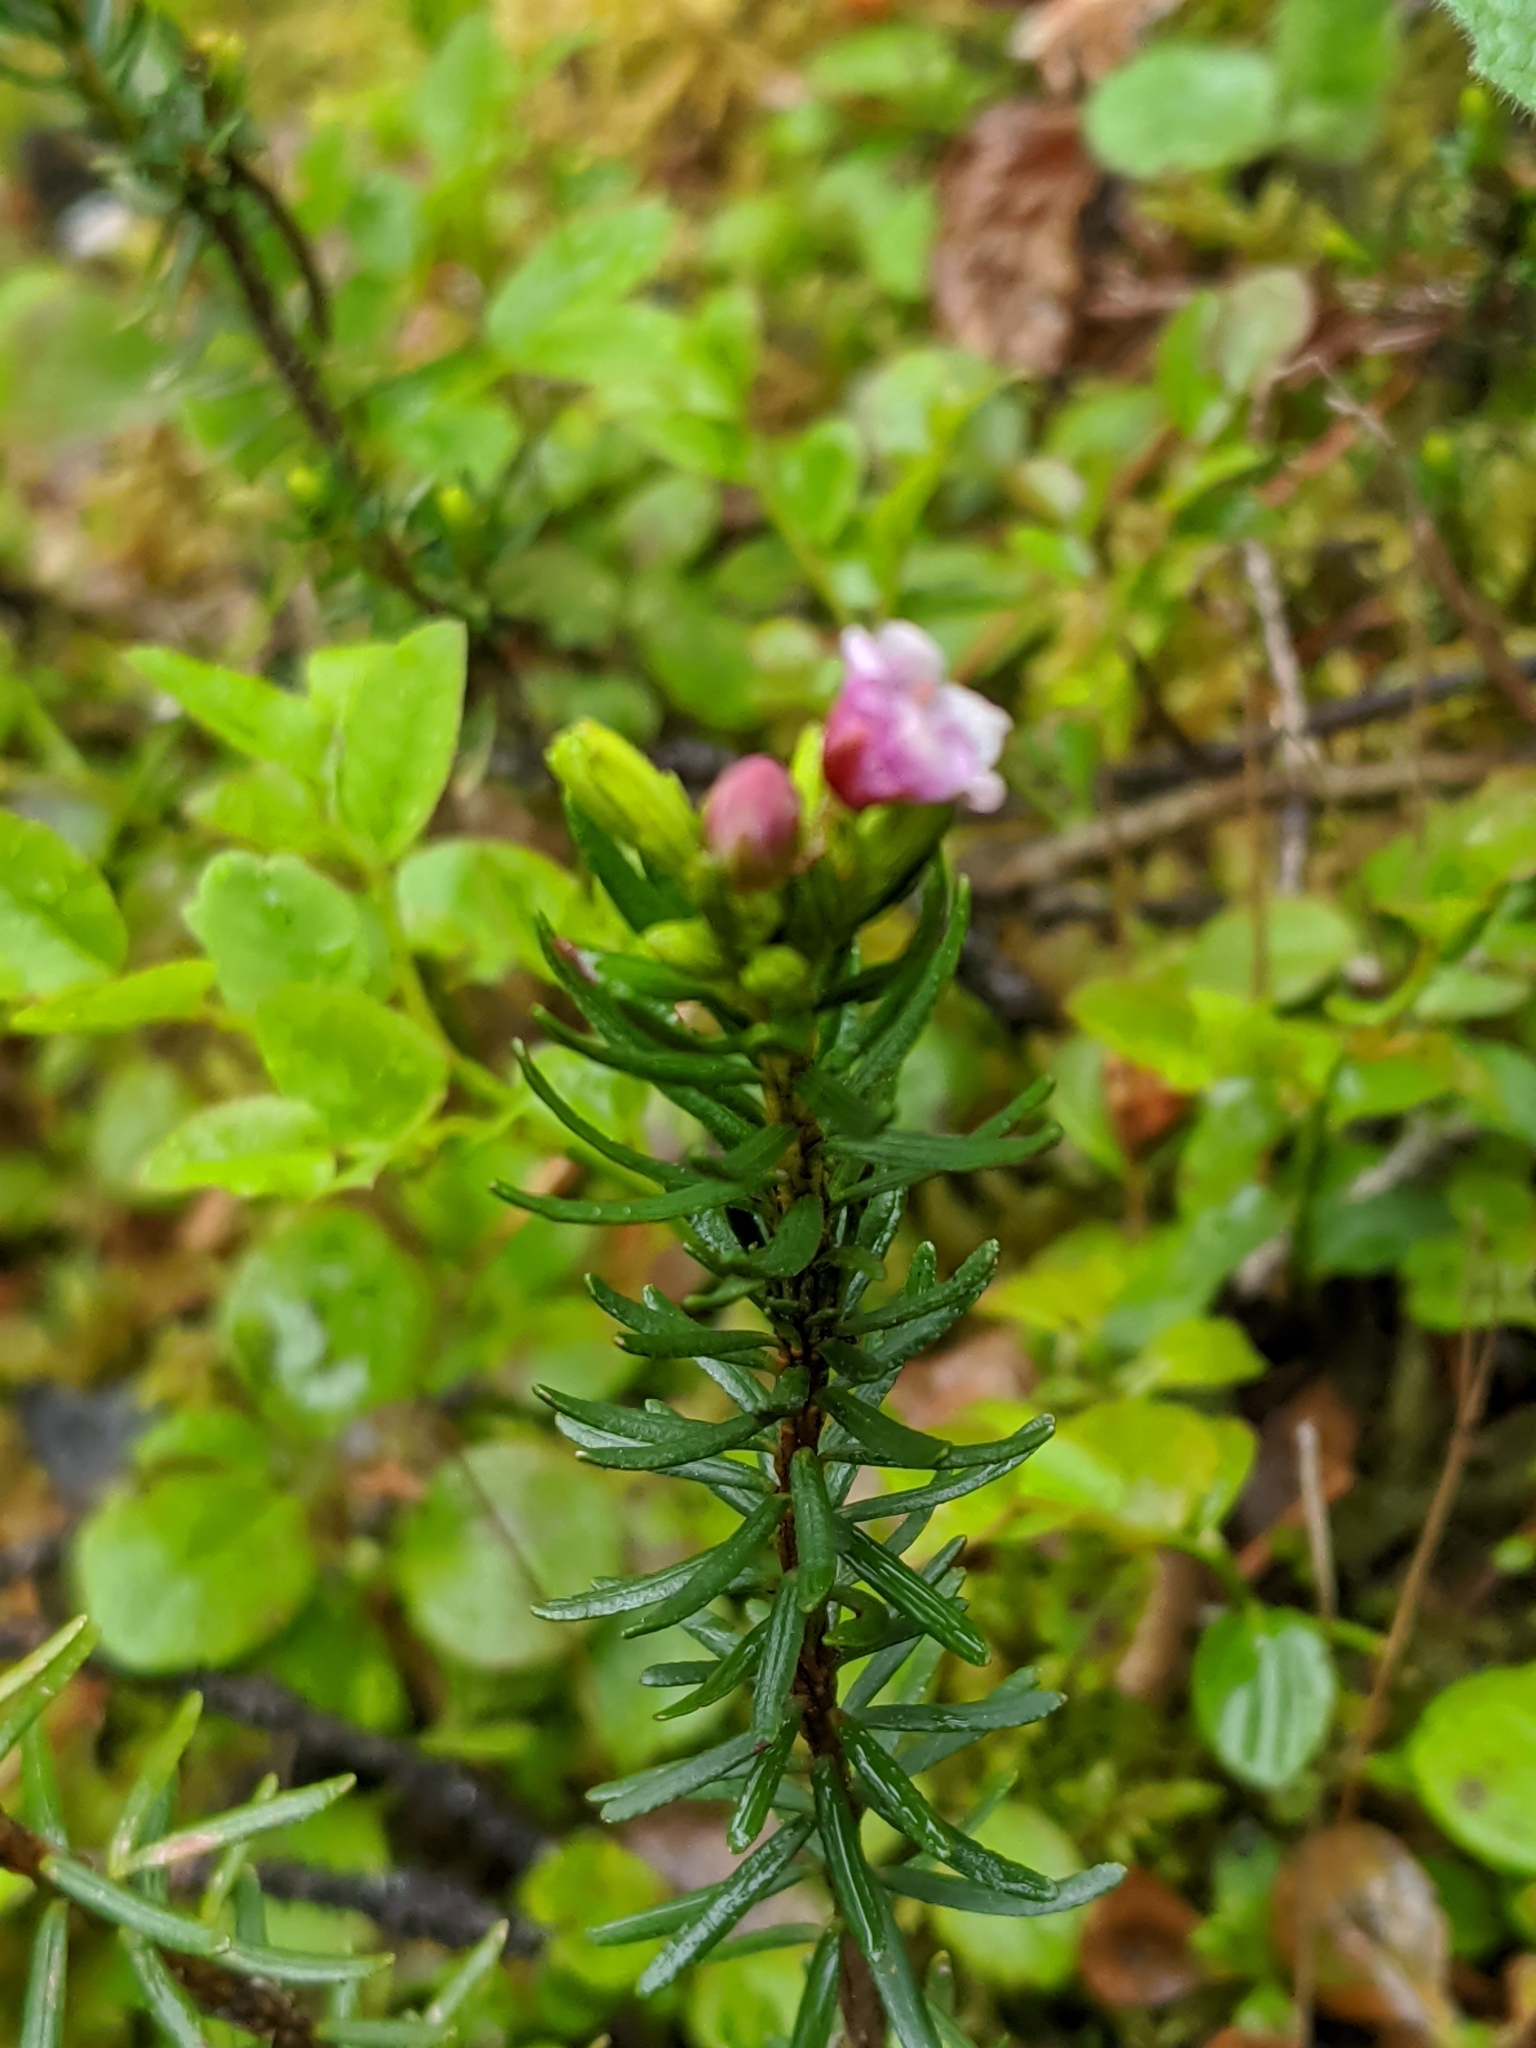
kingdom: Plantae
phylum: Tracheophyta
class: Magnoliopsida
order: Ericales
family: Ericaceae
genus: Phyllodoce
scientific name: Phyllodoce empetriformis
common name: Pink mountain heather
